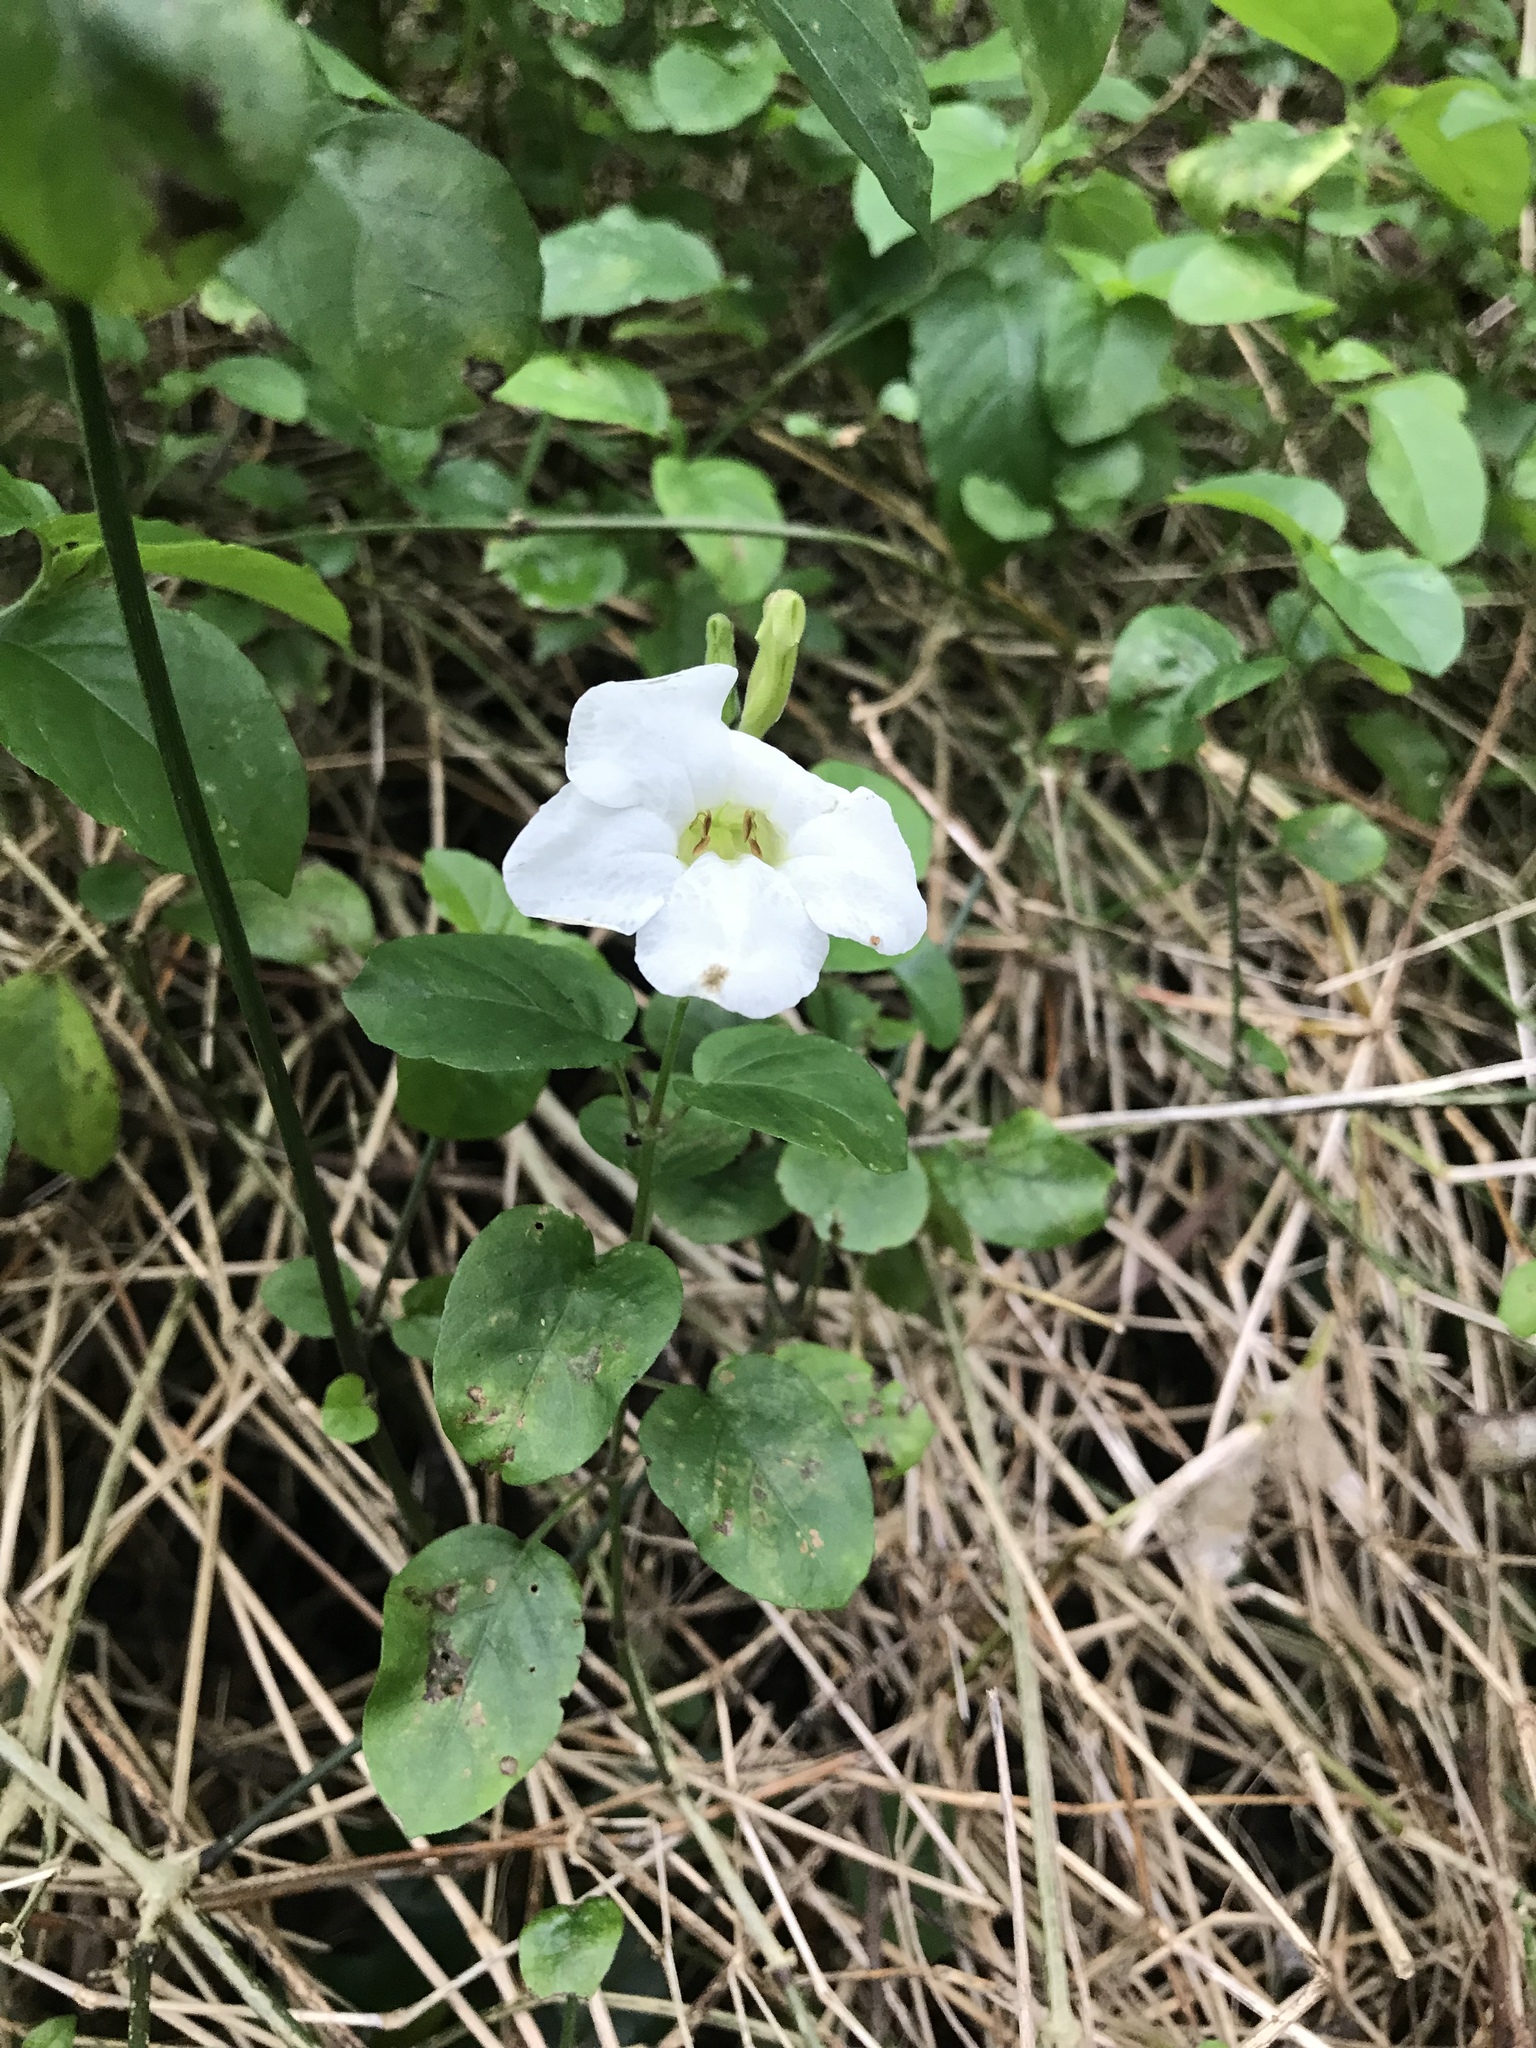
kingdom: Plantae
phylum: Tracheophyta
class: Magnoliopsida
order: Lamiales
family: Acanthaceae
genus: Asystasia
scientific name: Asystasia gangetica
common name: Chinese violet
